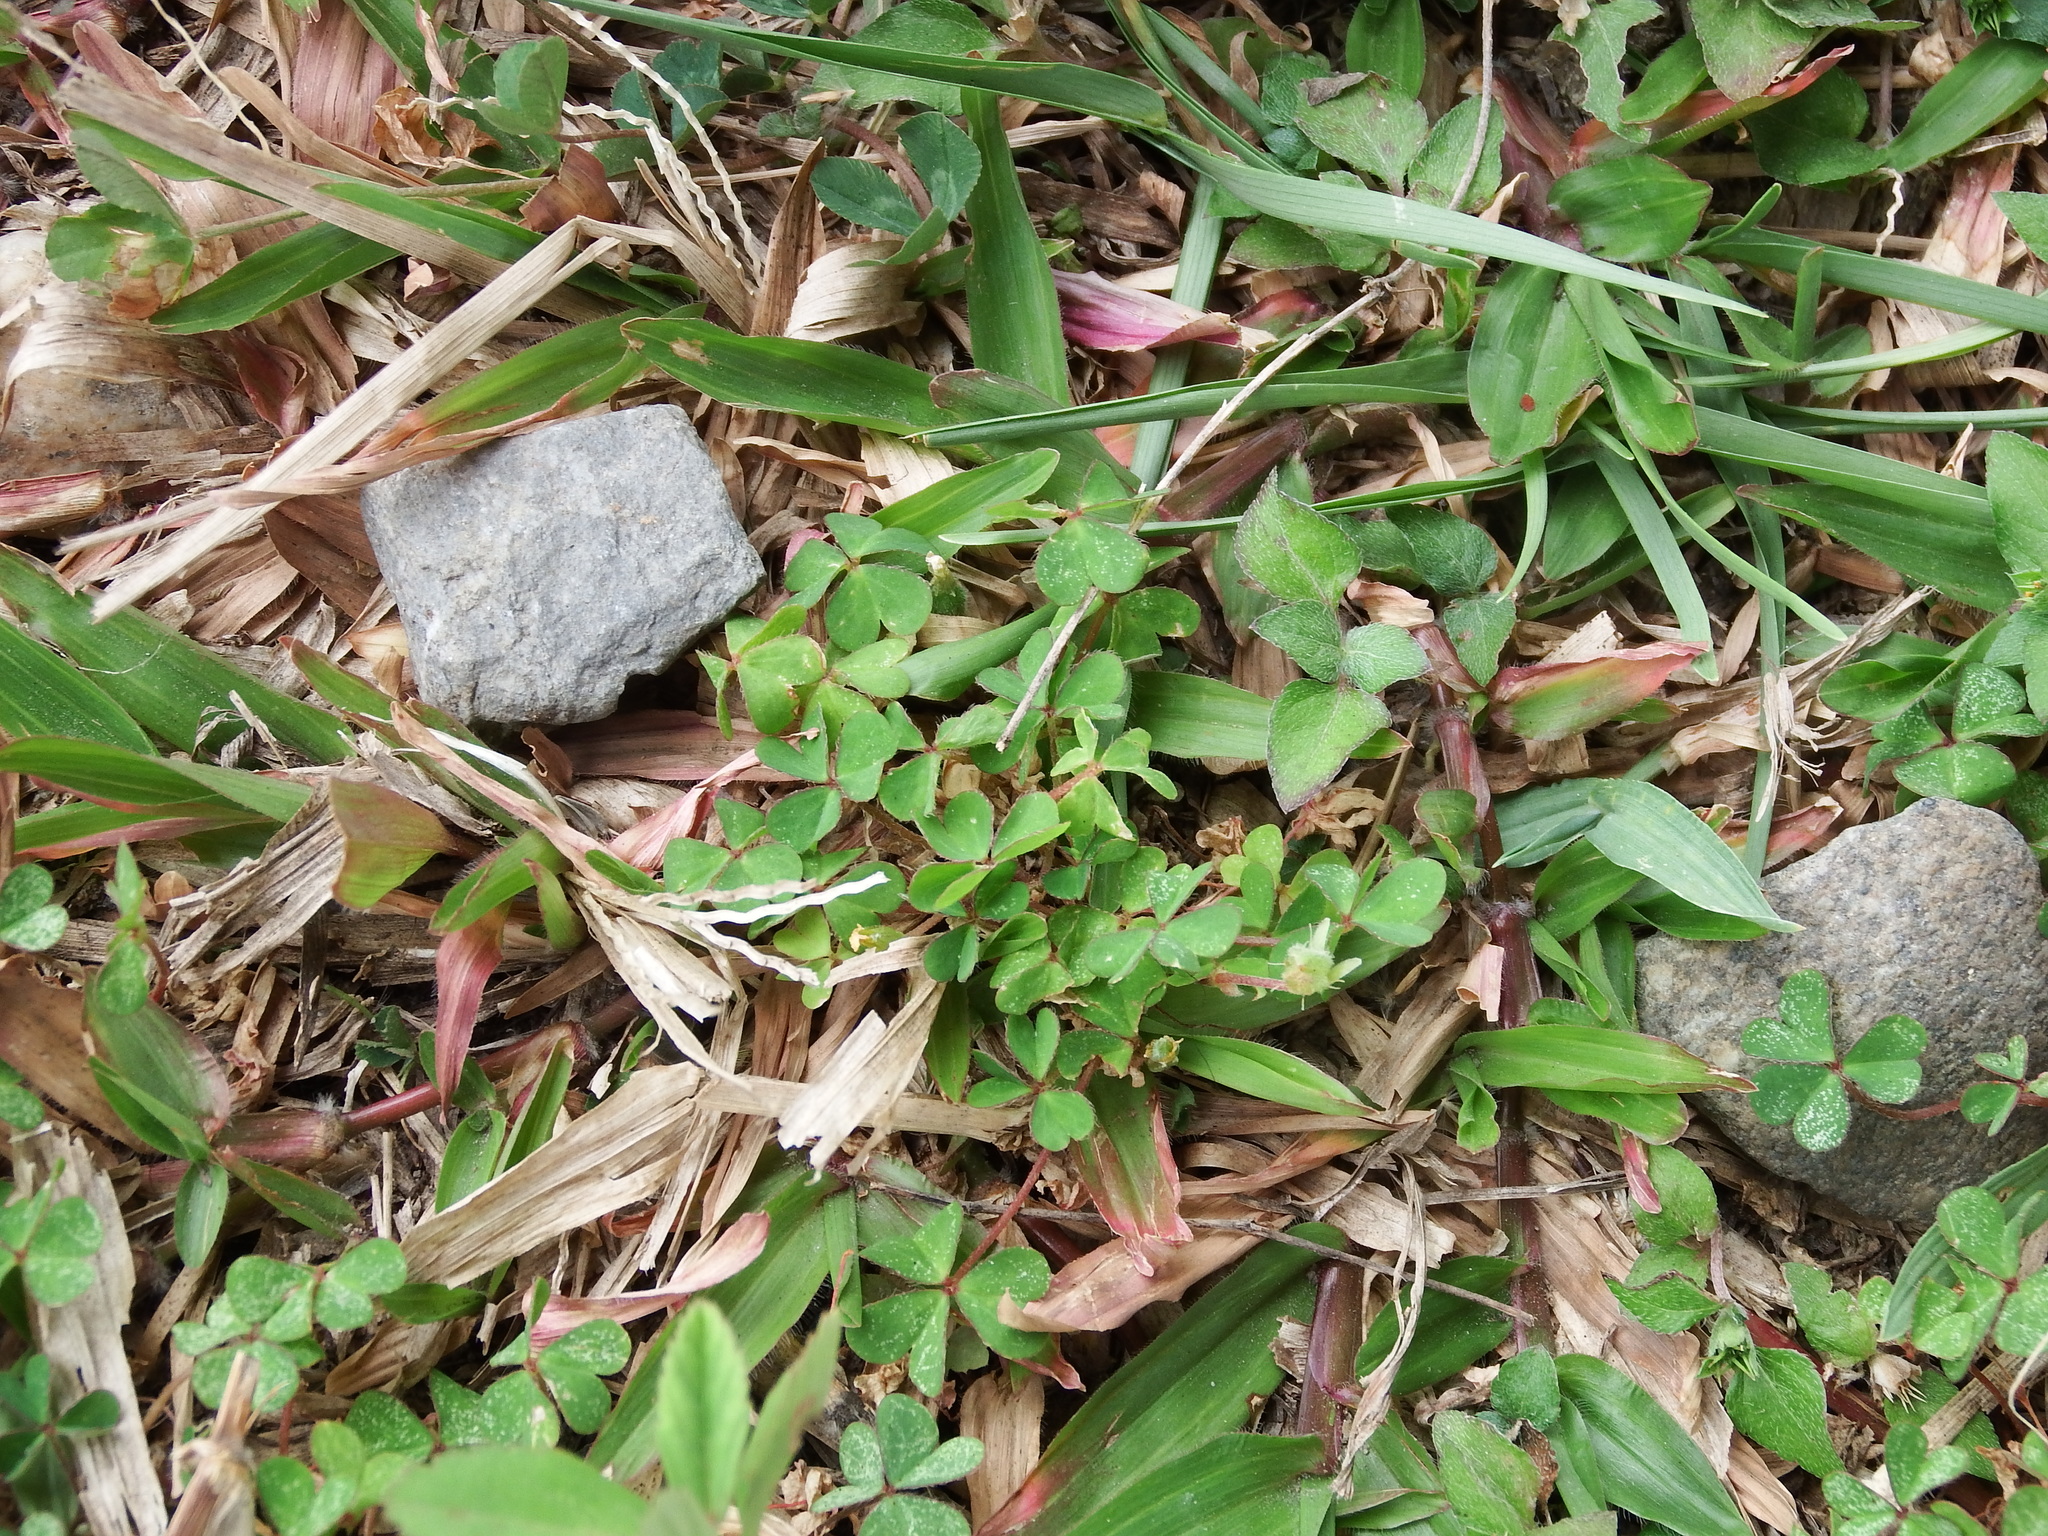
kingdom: Plantae
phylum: Tracheophyta
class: Magnoliopsida
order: Oxalidales
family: Oxalidaceae
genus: Oxalis
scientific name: Oxalis corniculata
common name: Procumbent yellow-sorrel
